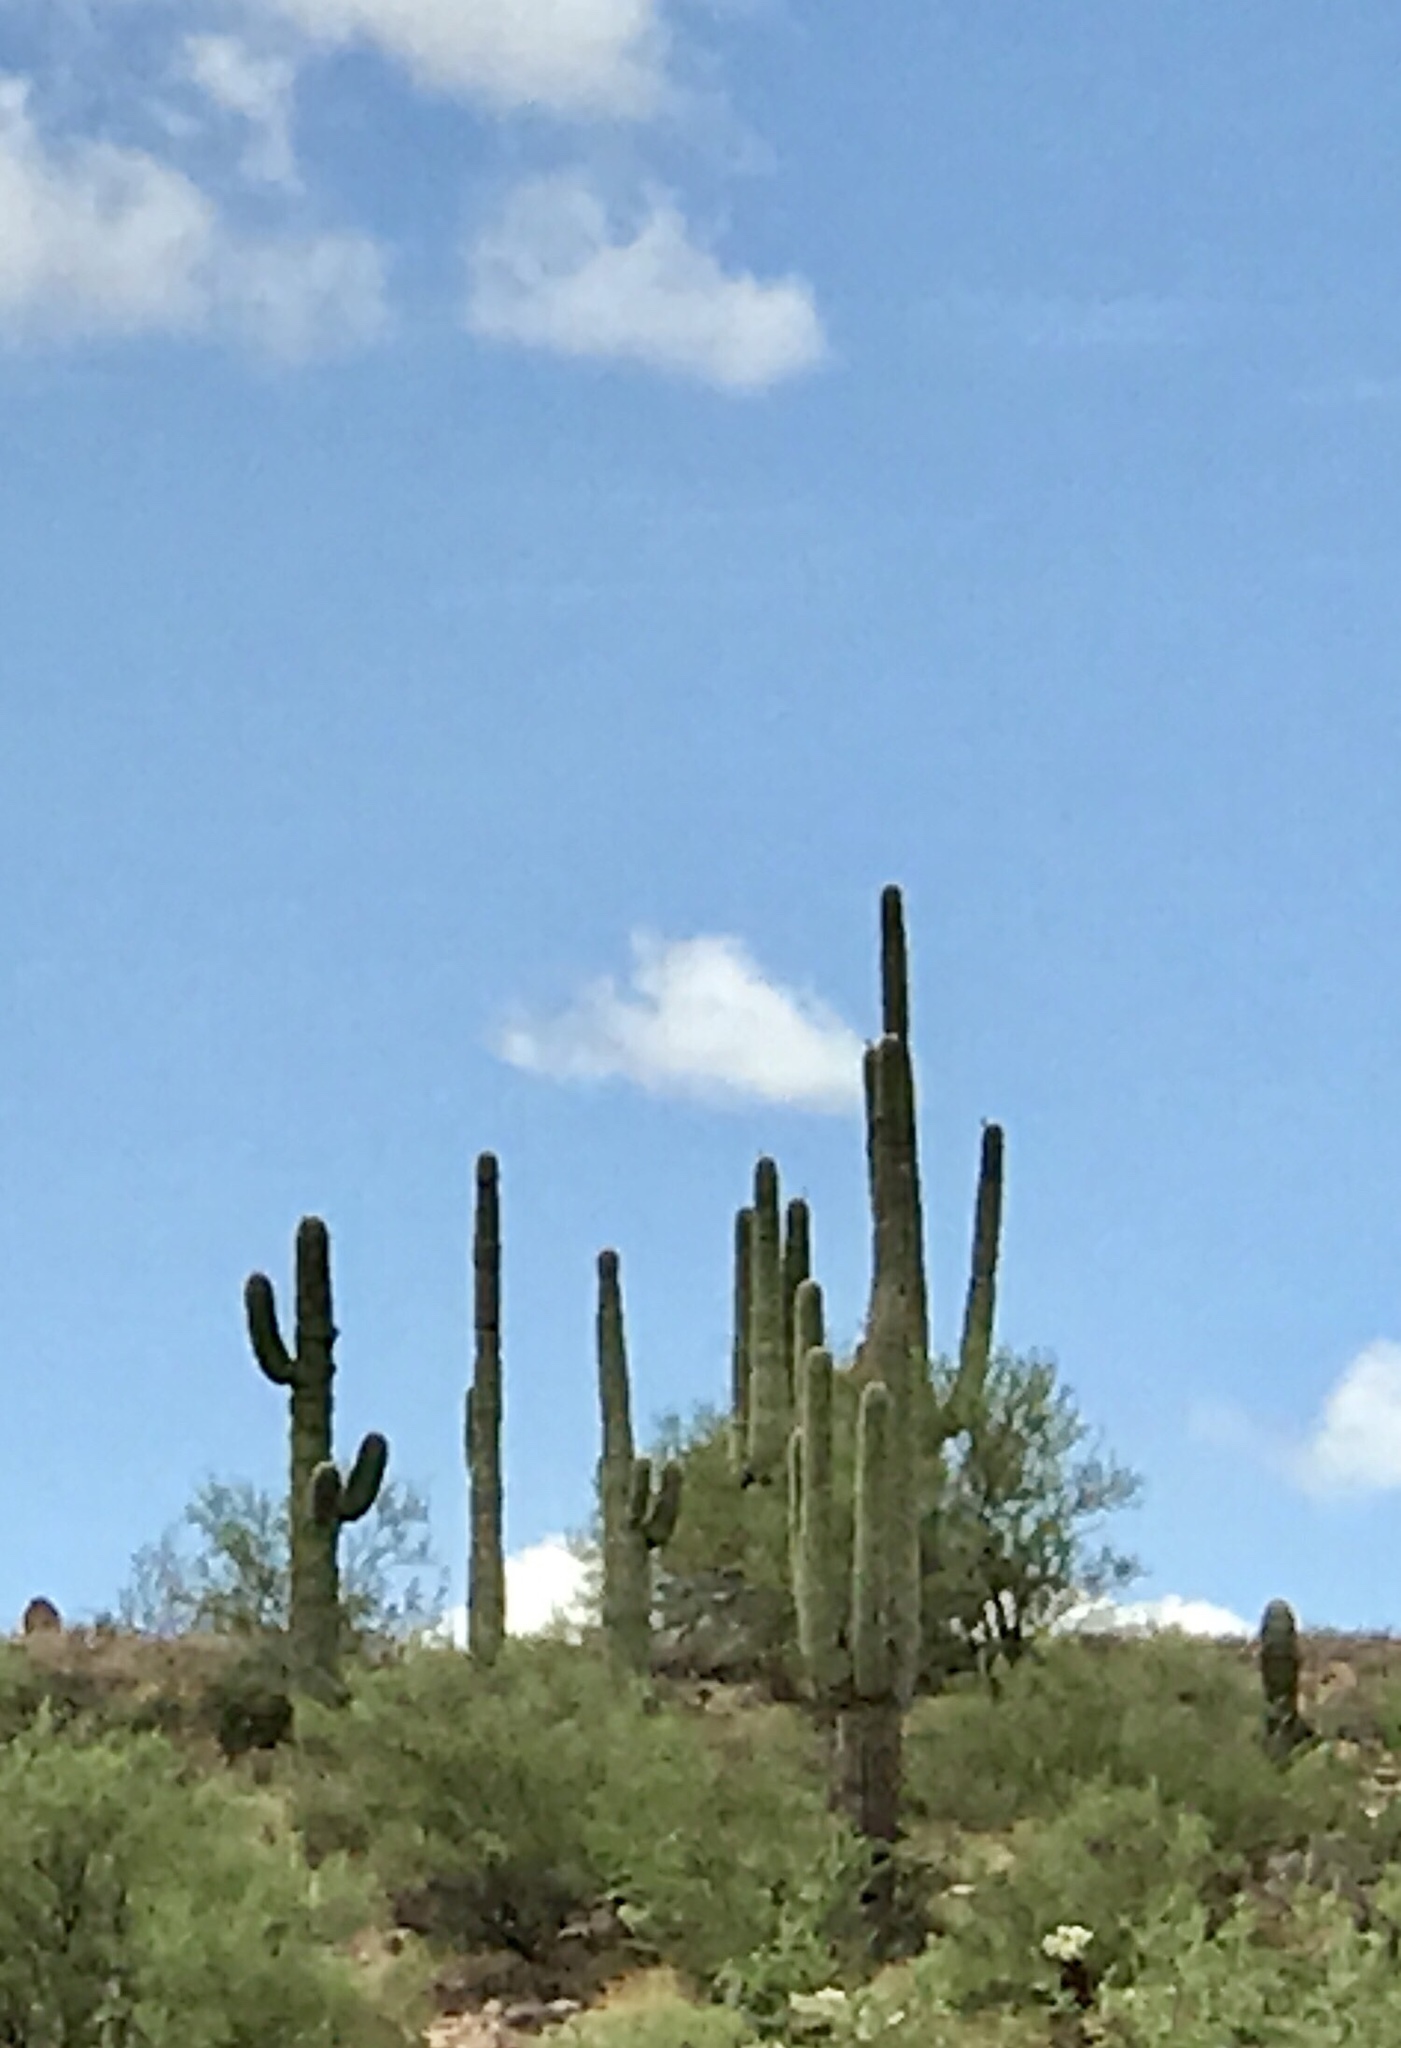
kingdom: Plantae
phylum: Tracheophyta
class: Magnoliopsida
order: Caryophyllales
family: Cactaceae
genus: Carnegiea
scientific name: Carnegiea gigantea
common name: Saguaro
